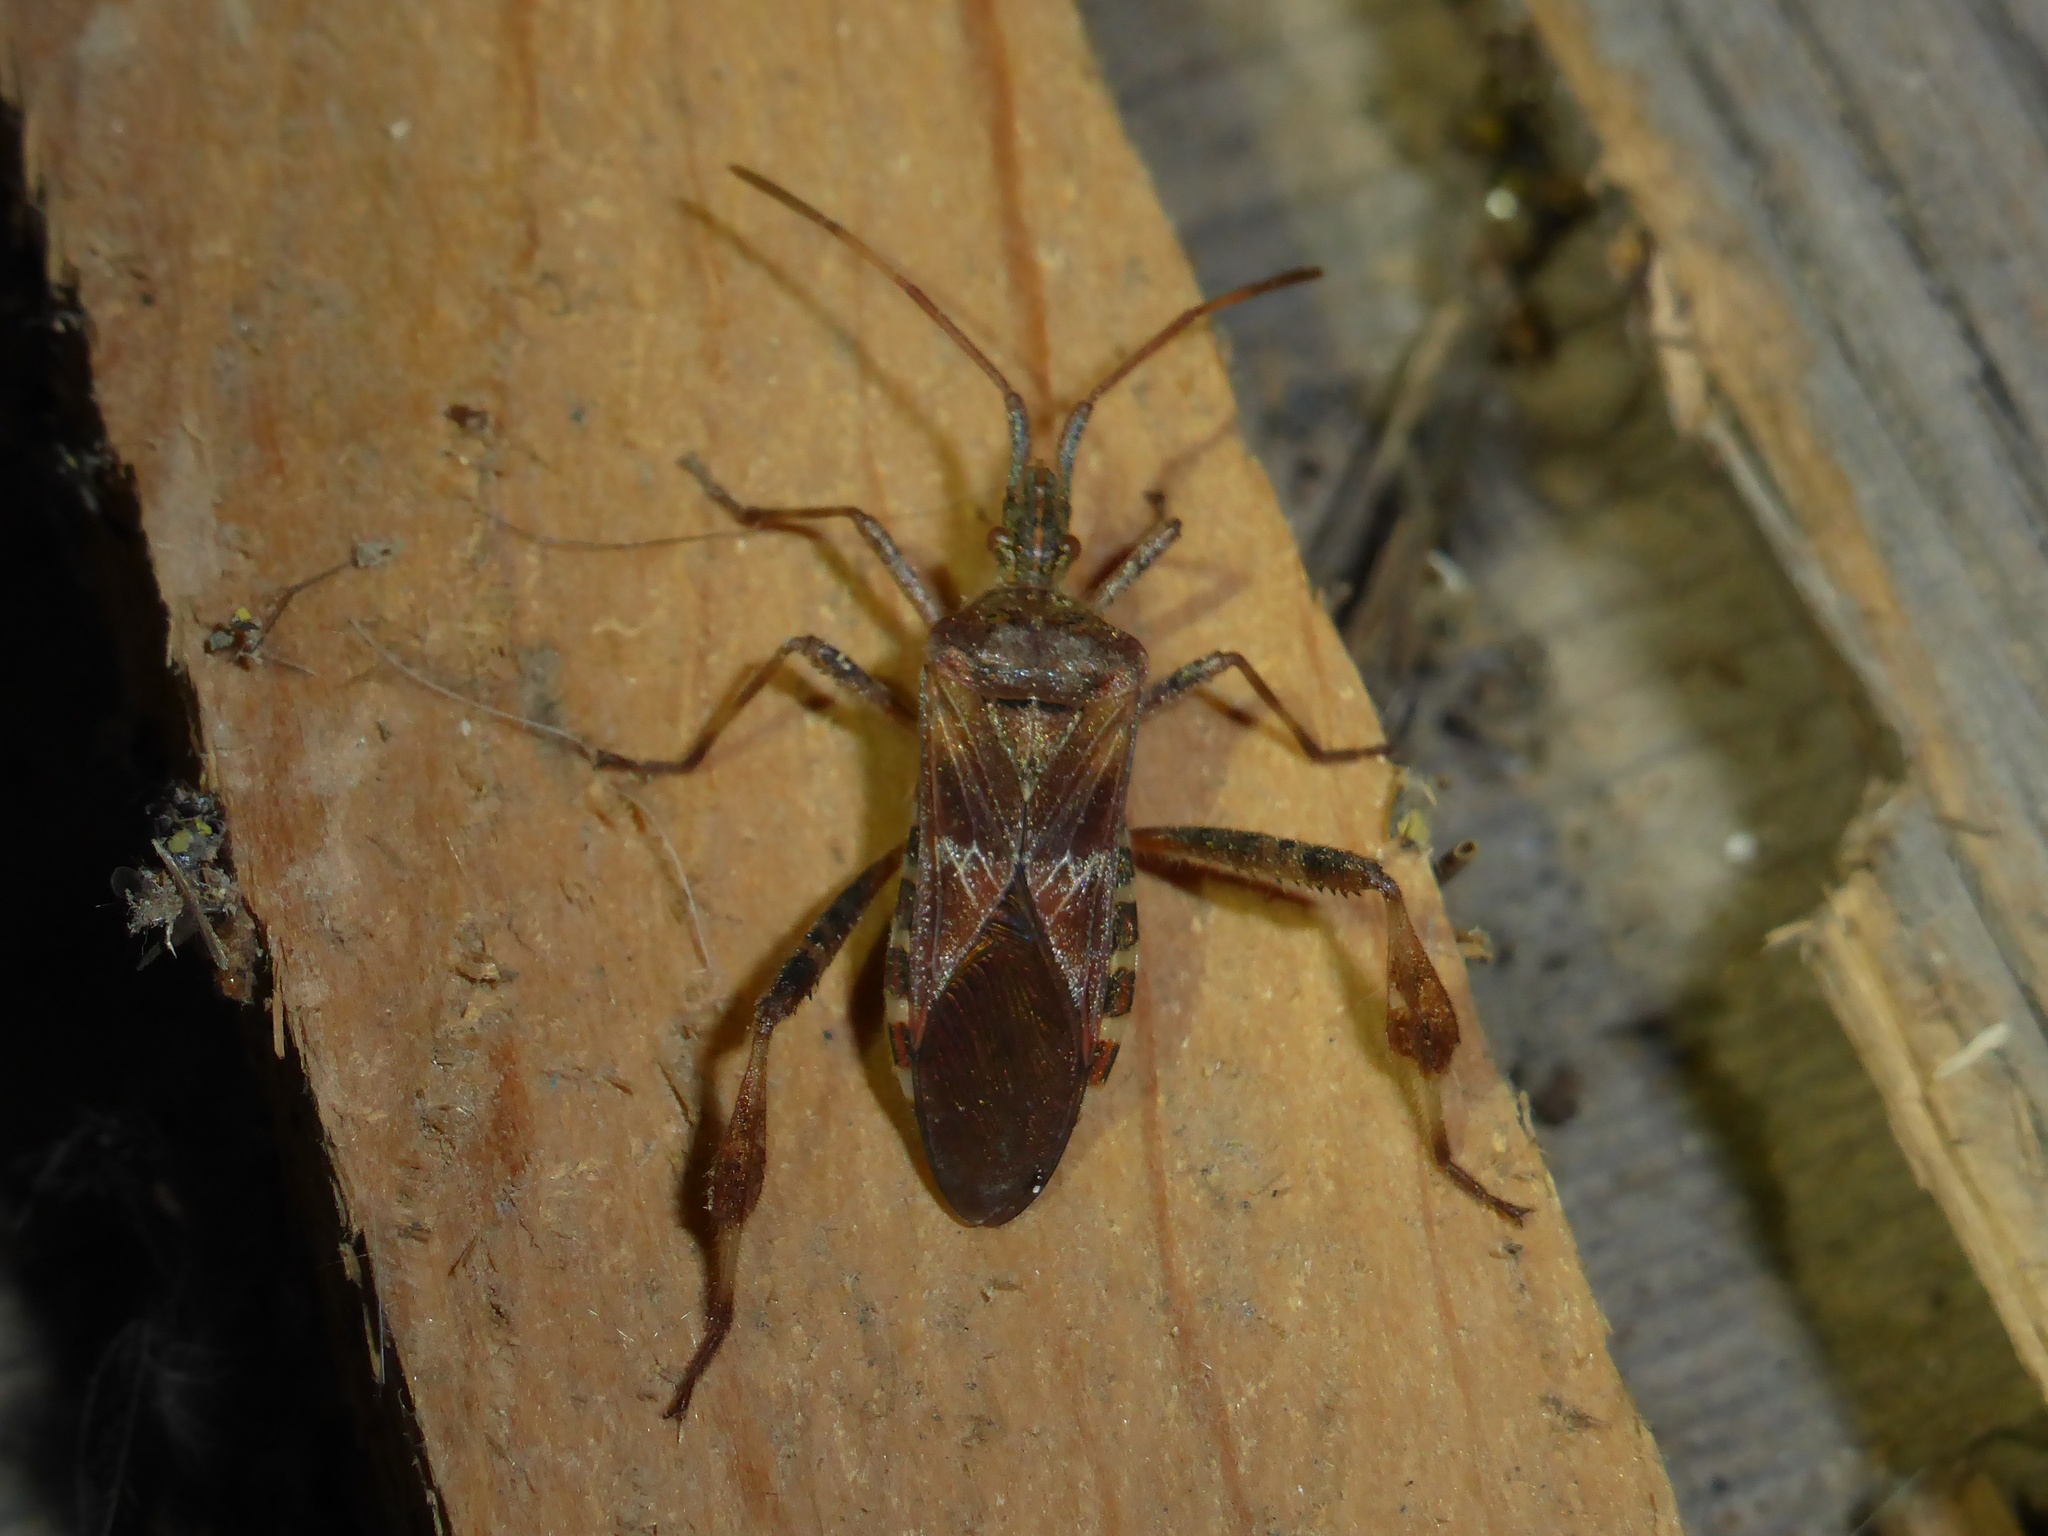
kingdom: Animalia
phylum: Arthropoda
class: Insecta
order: Hemiptera
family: Coreidae
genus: Leptoglossus
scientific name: Leptoglossus occidentalis
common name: Western conifer-seed bug
